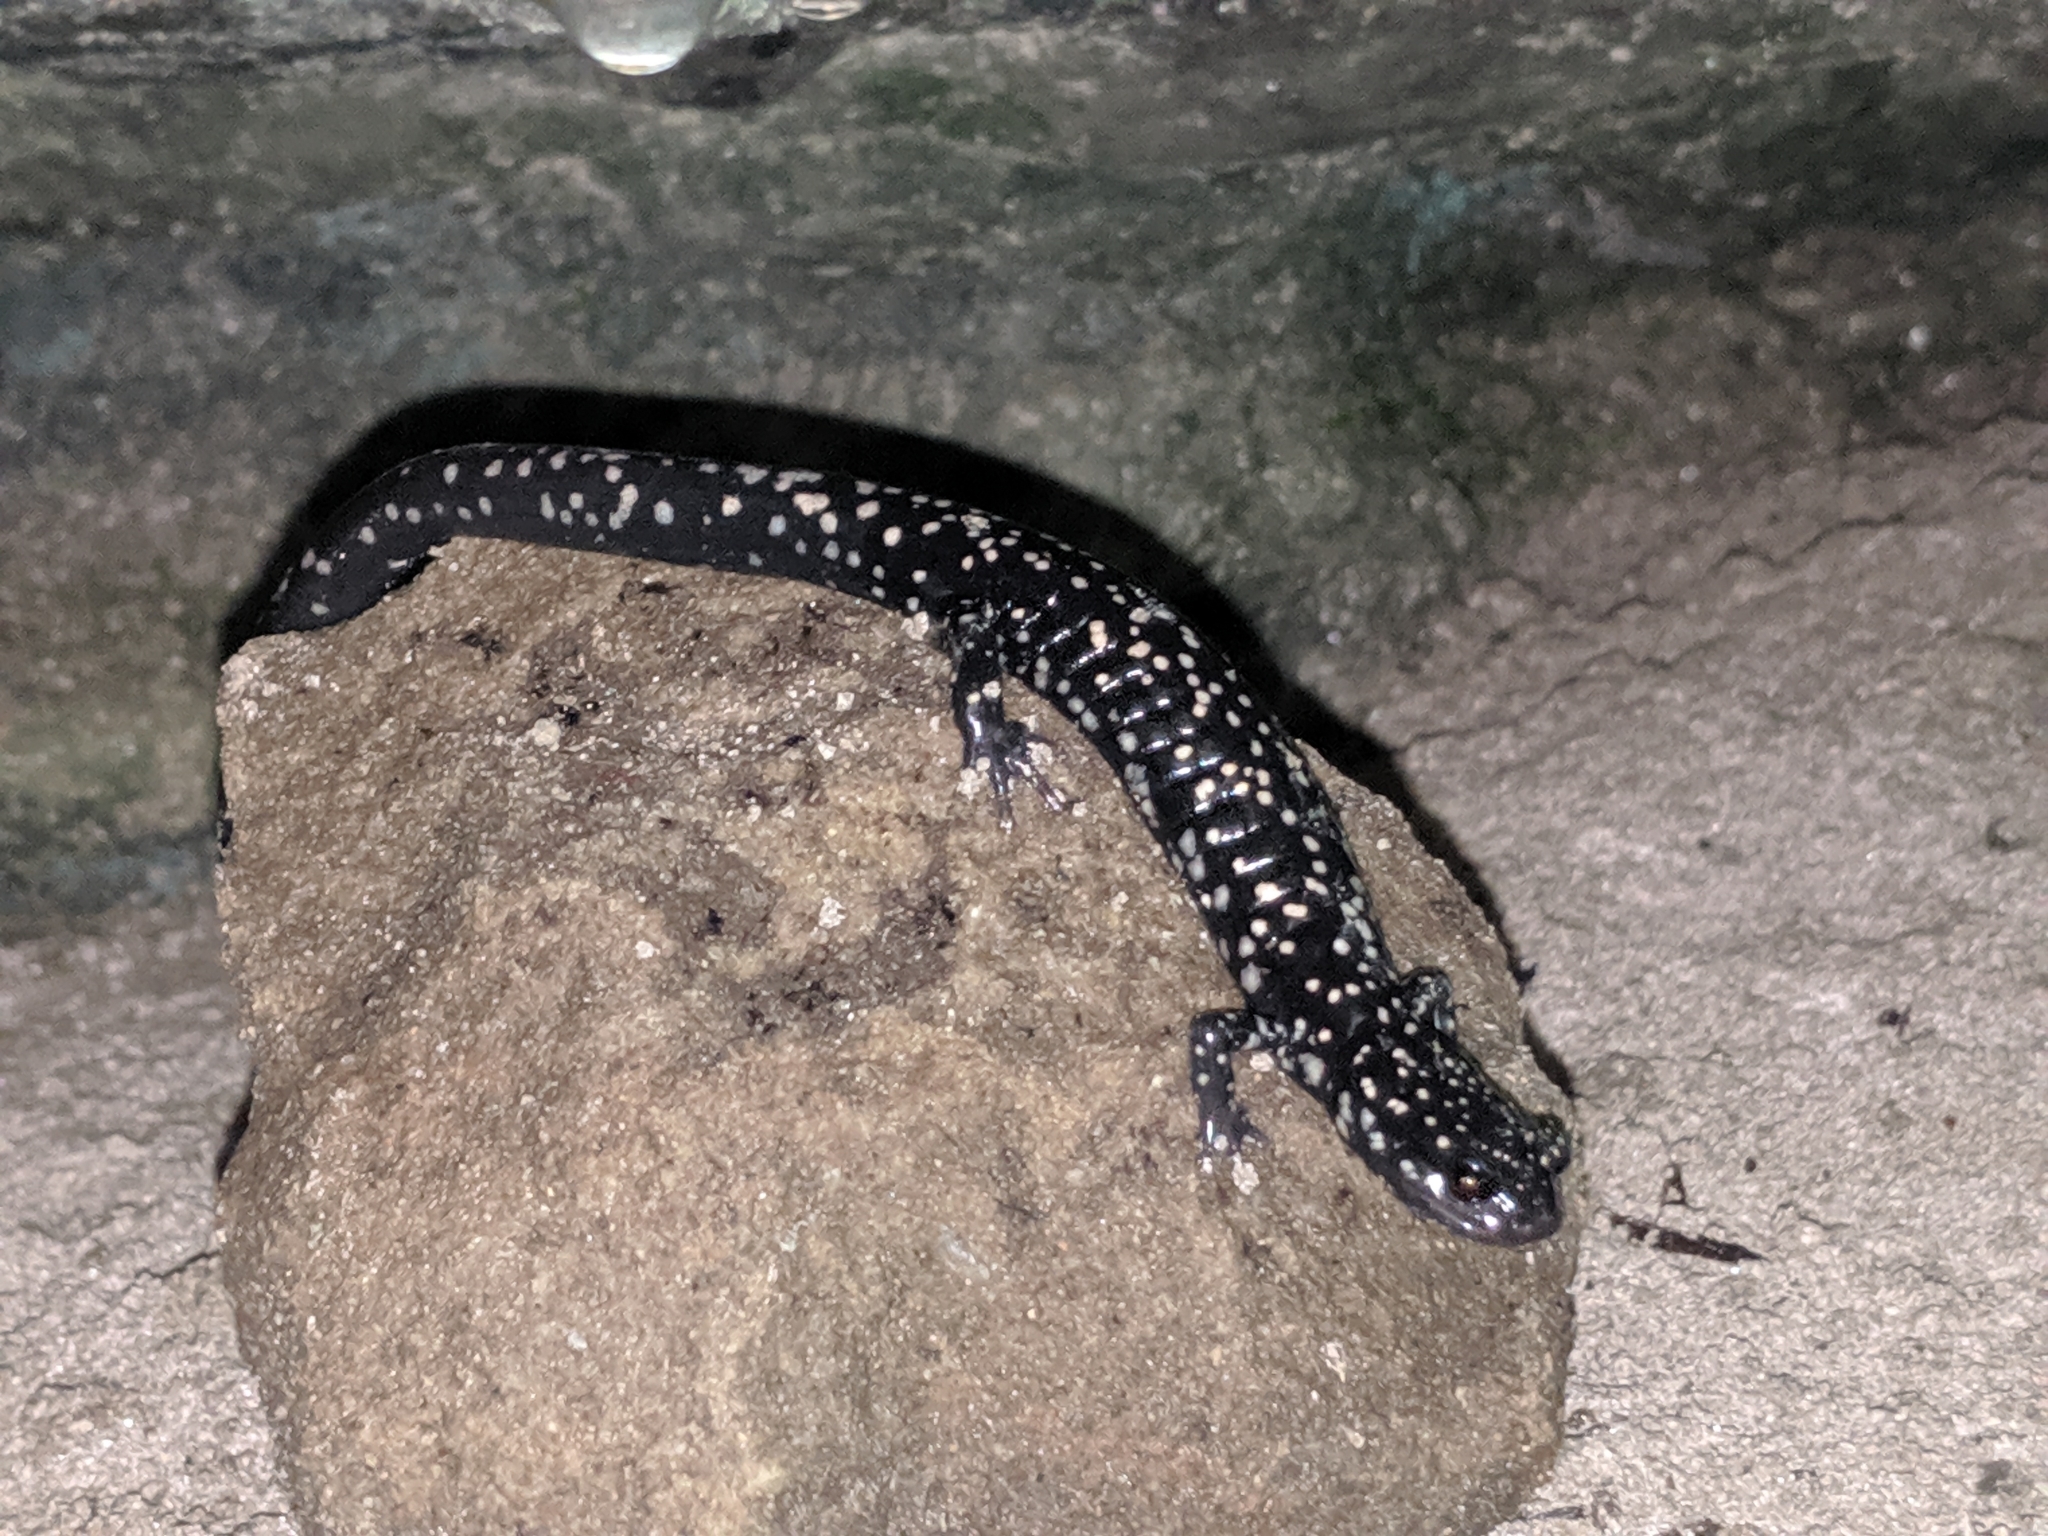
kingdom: Animalia
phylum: Chordata
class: Amphibia
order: Caudata
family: Plethodontidae
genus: Plethodon
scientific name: Plethodon glutinosus
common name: Northern slimy salamander
